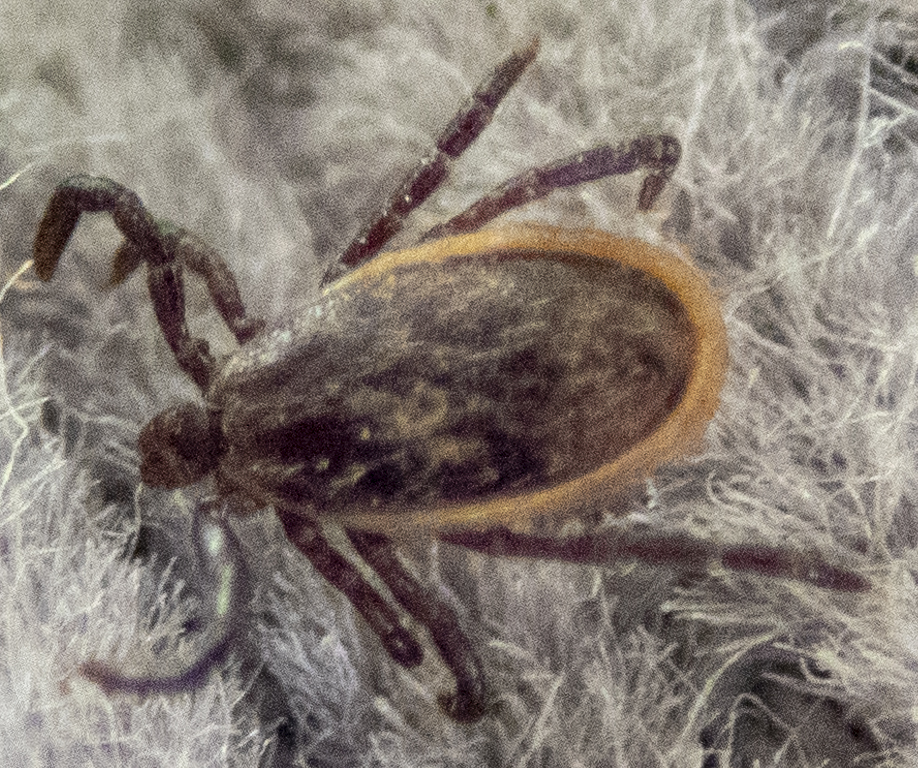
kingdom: Animalia
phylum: Arthropoda
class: Arachnida
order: Ixodida
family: Ixodidae
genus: Ixodes
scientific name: Ixodes scapularis
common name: Black legged tick
